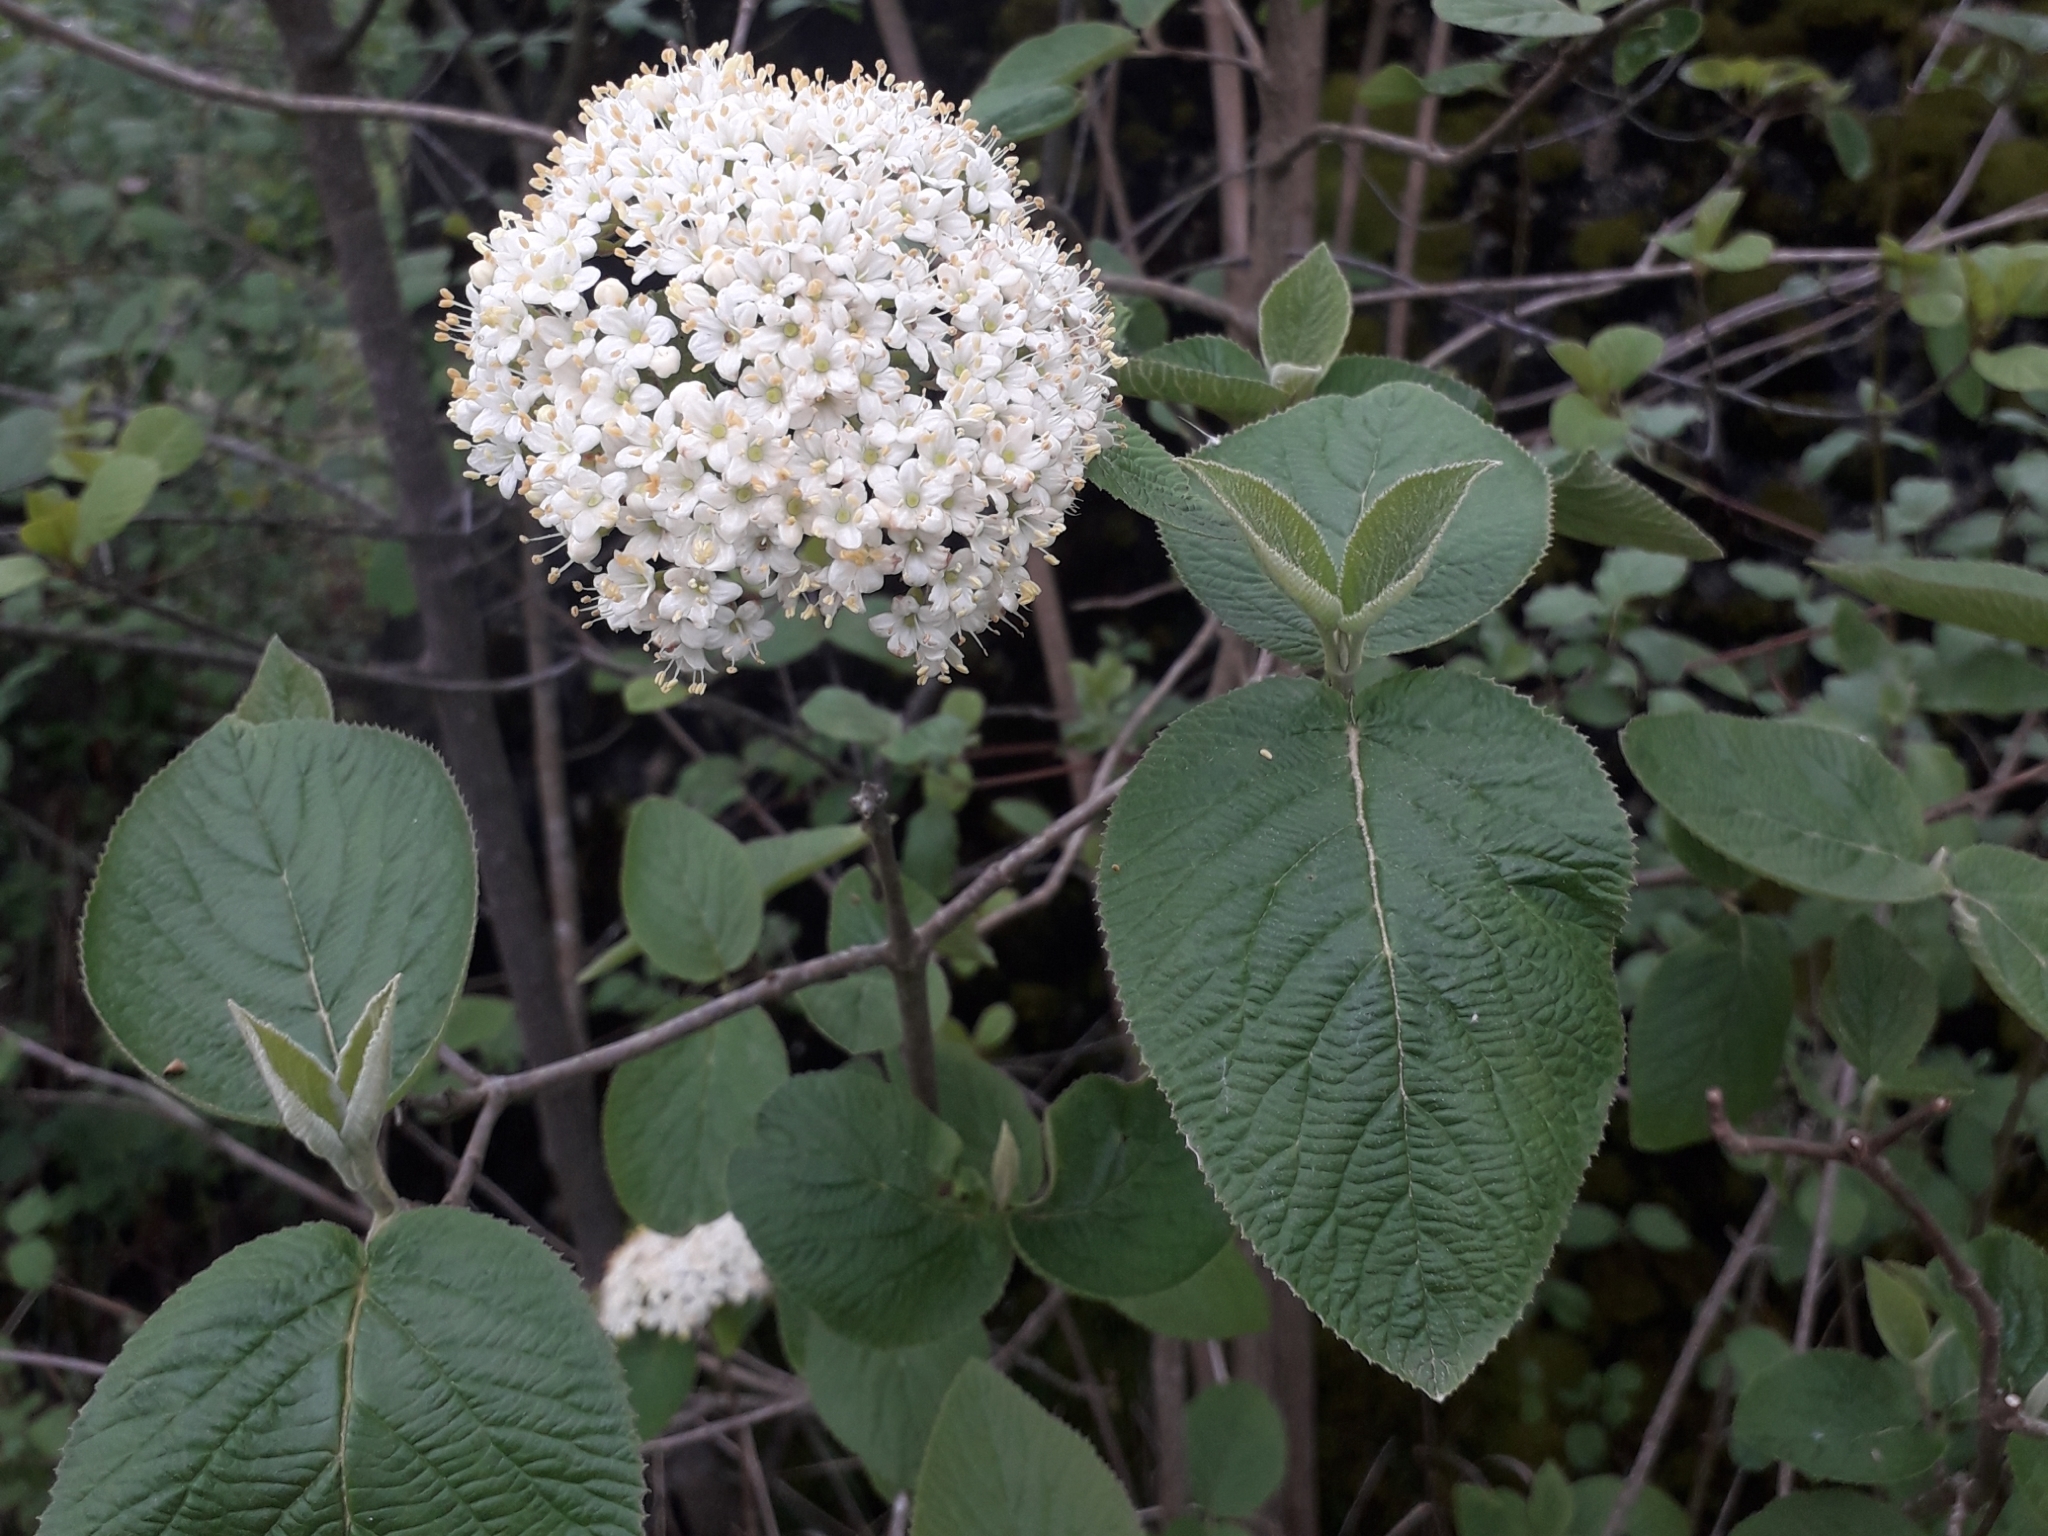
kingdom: Plantae
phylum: Tracheophyta
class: Magnoliopsida
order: Dipsacales
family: Viburnaceae
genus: Viburnum
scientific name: Viburnum lantana
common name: Wayfaring tree
